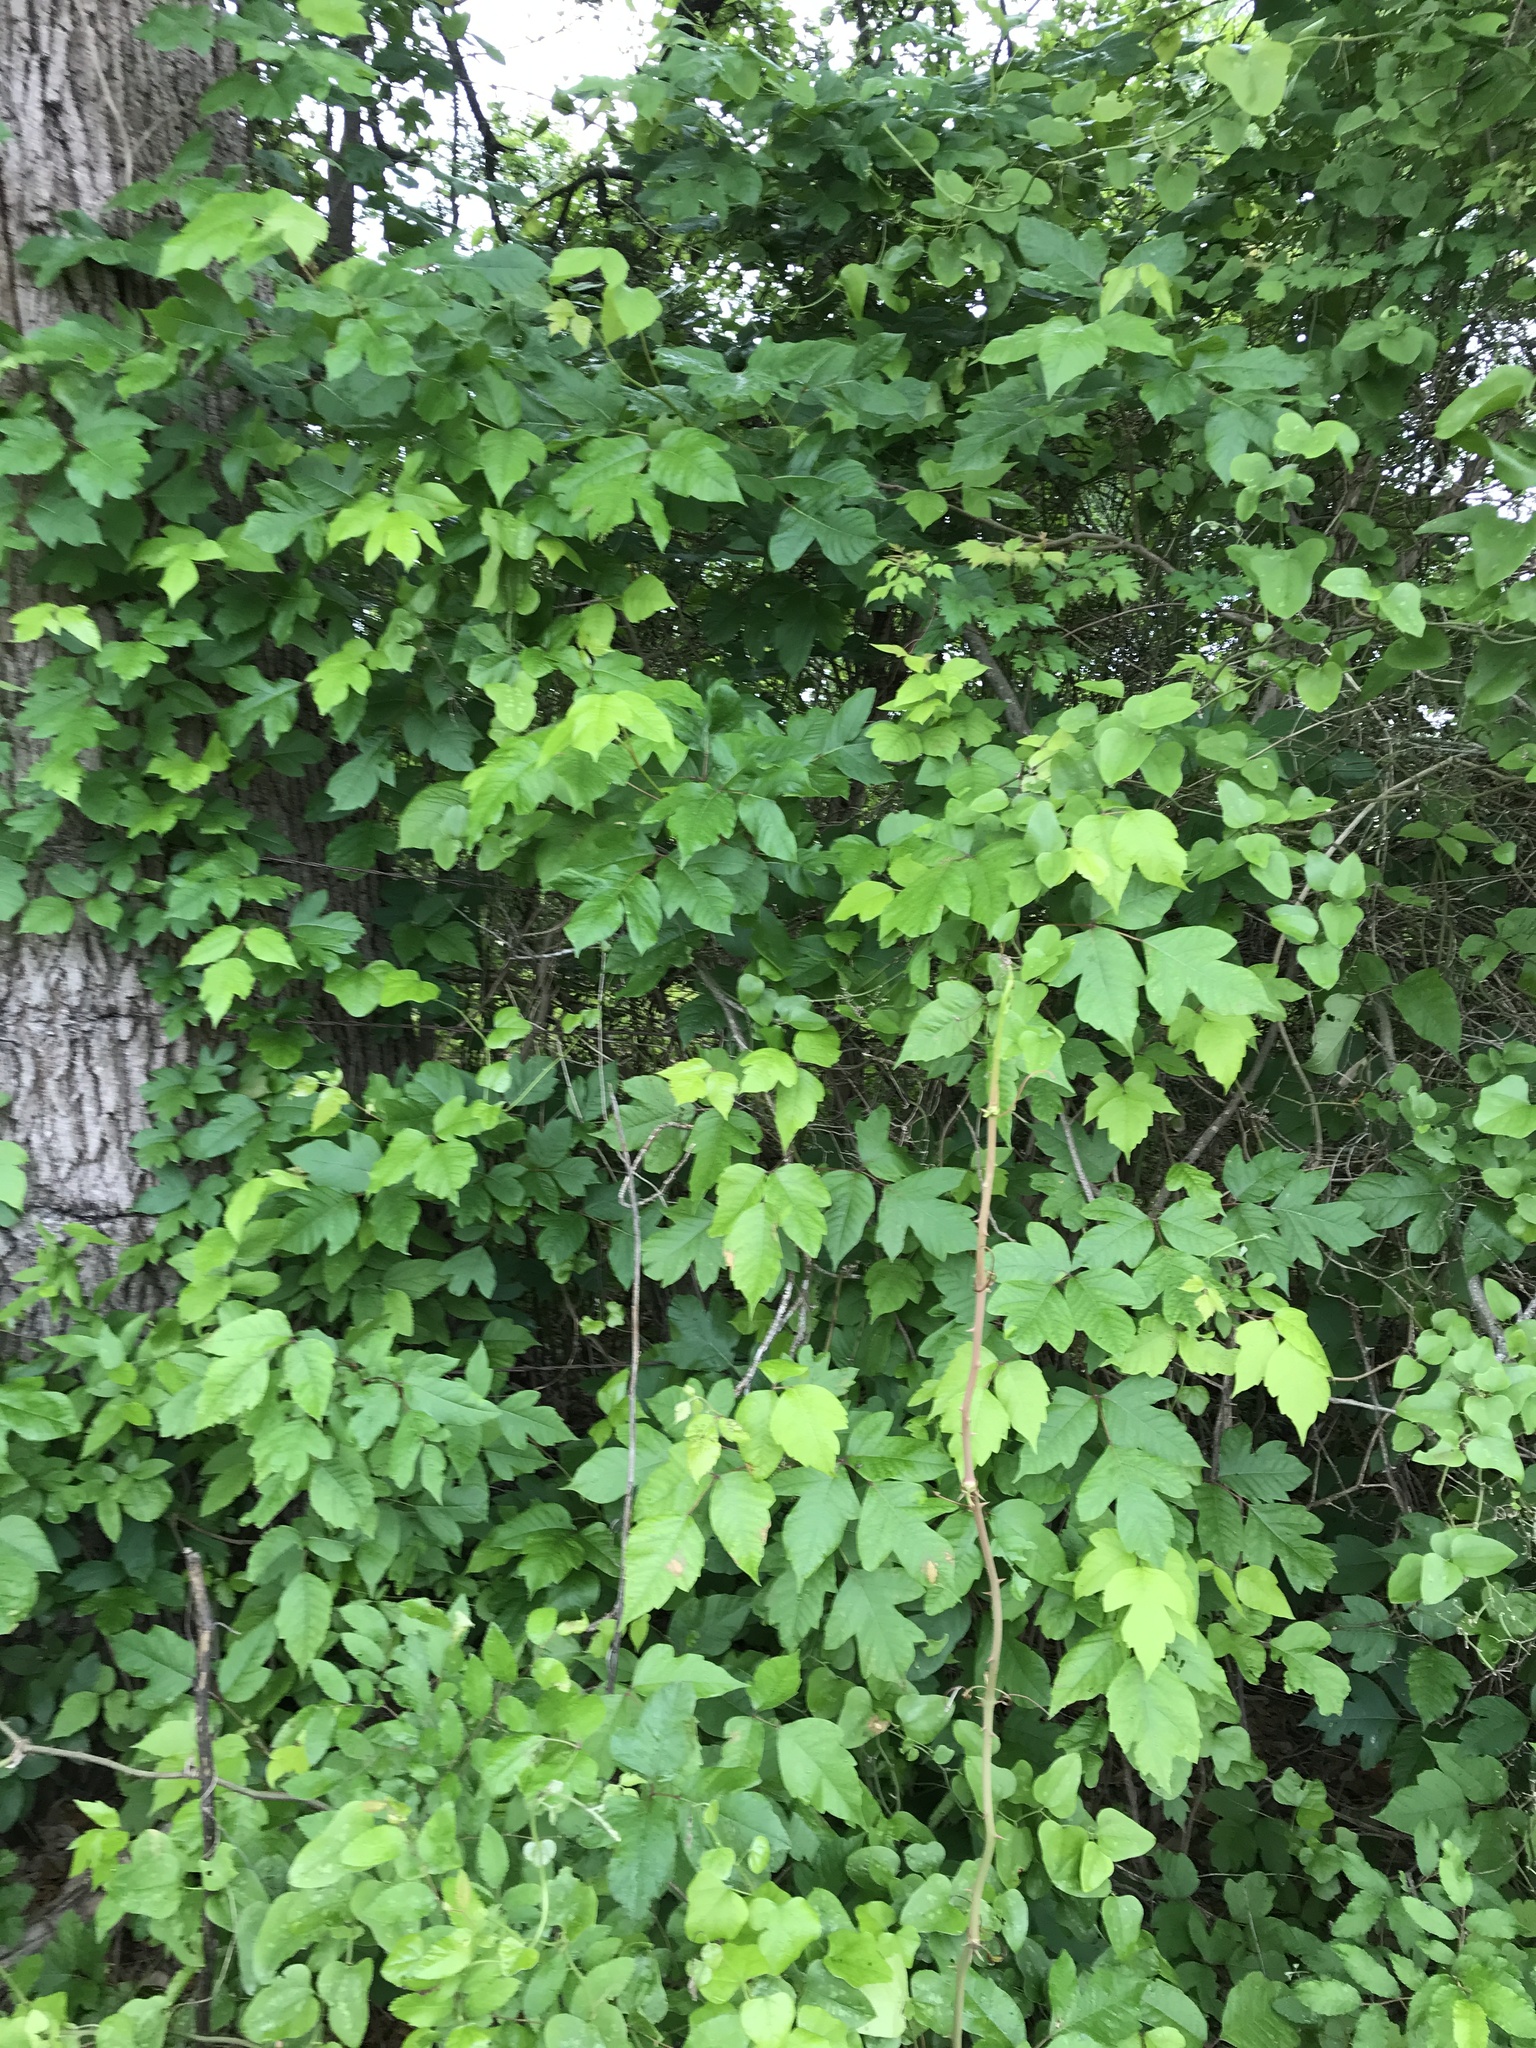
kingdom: Plantae
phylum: Tracheophyta
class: Magnoliopsida
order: Sapindales
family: Anacardiaceae
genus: Toxicodendron
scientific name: Toxicodendron radicans
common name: Poison ivy
